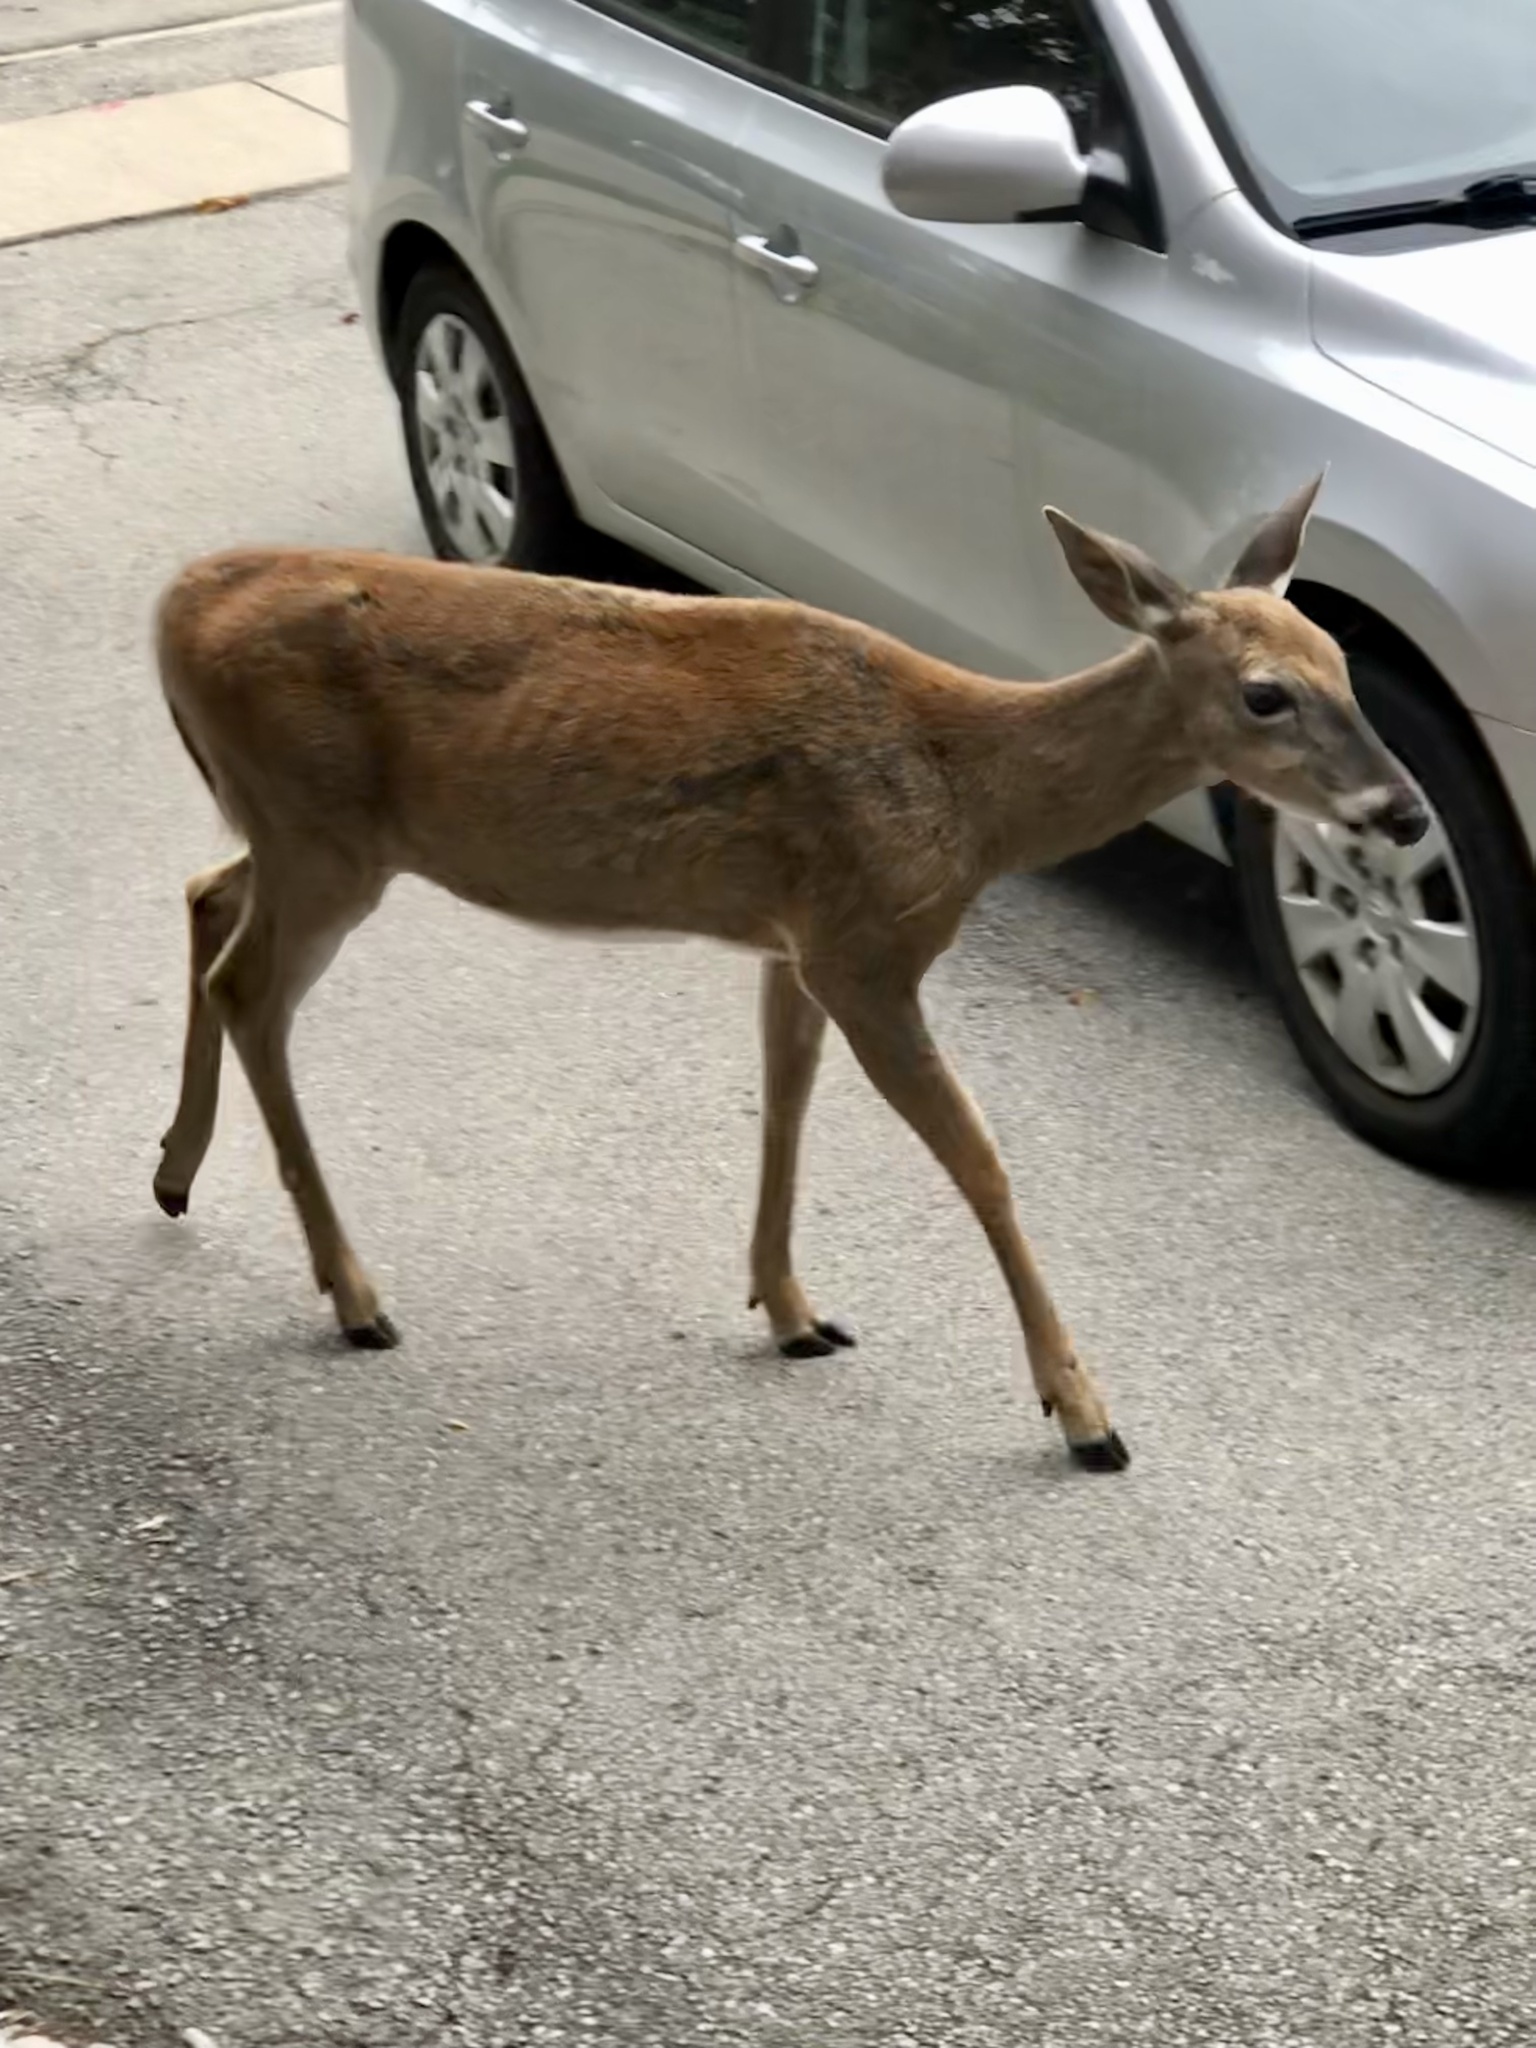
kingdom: Animalia
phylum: Chordata
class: Mammalia
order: Artiodactyla
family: Cervidae
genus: Odocoileus
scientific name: Odocoileus virginianus
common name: White-tailed deer
